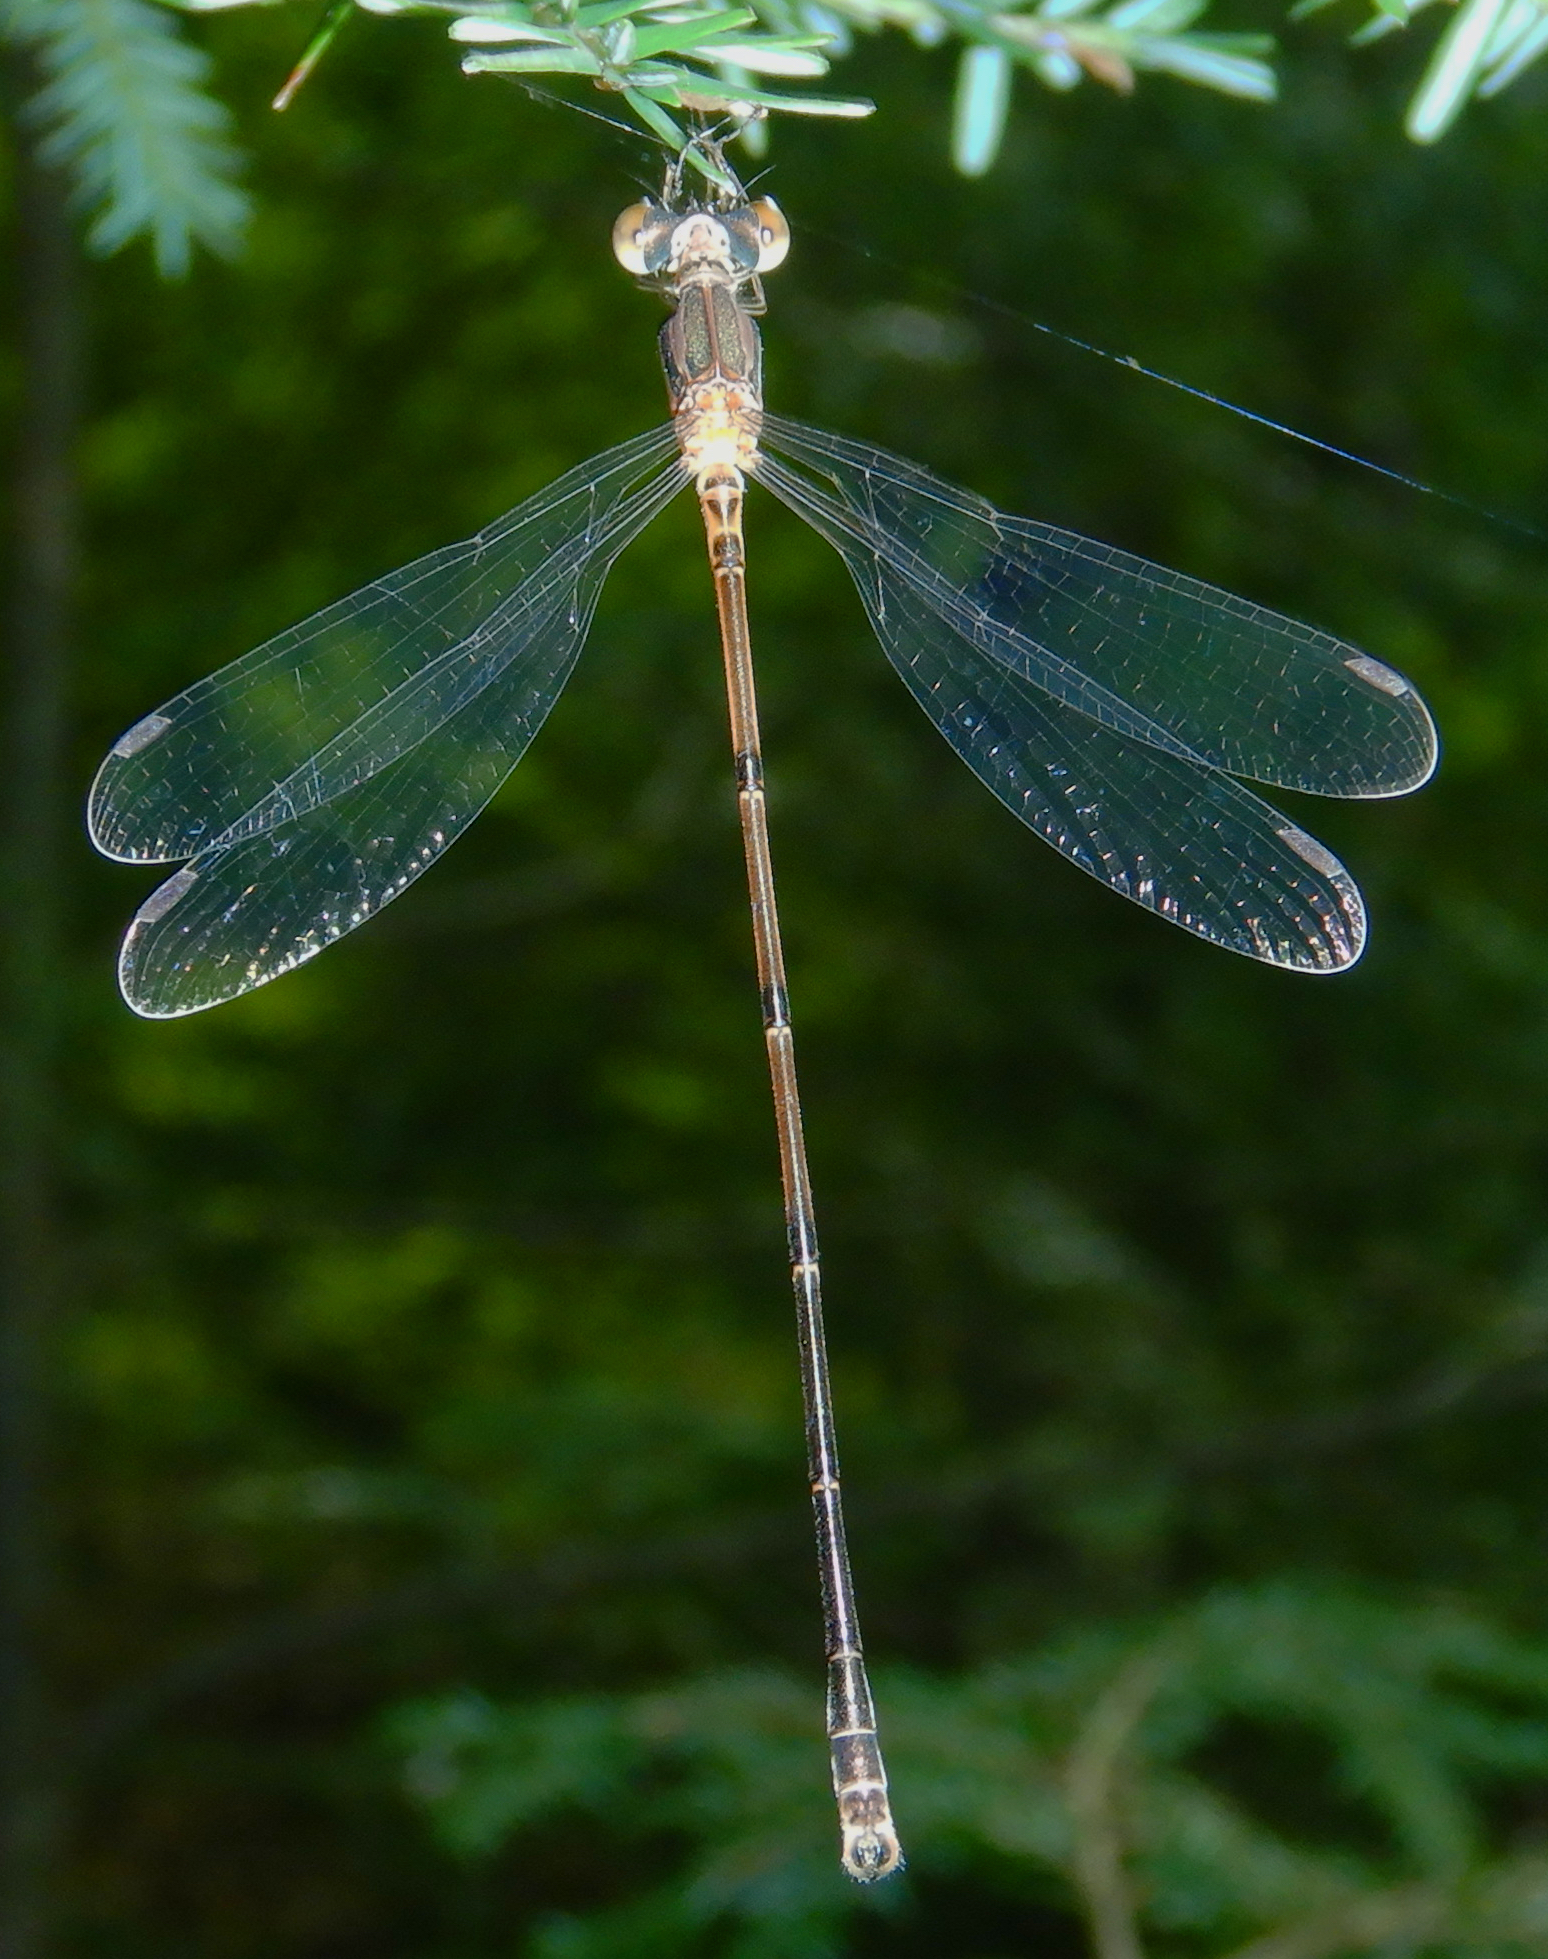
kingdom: Animalia
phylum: Arthropoda
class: Insecta
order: Odonata
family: Lestidae
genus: Lestes
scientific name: Lestes rectangularis
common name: Slender spreadwing
